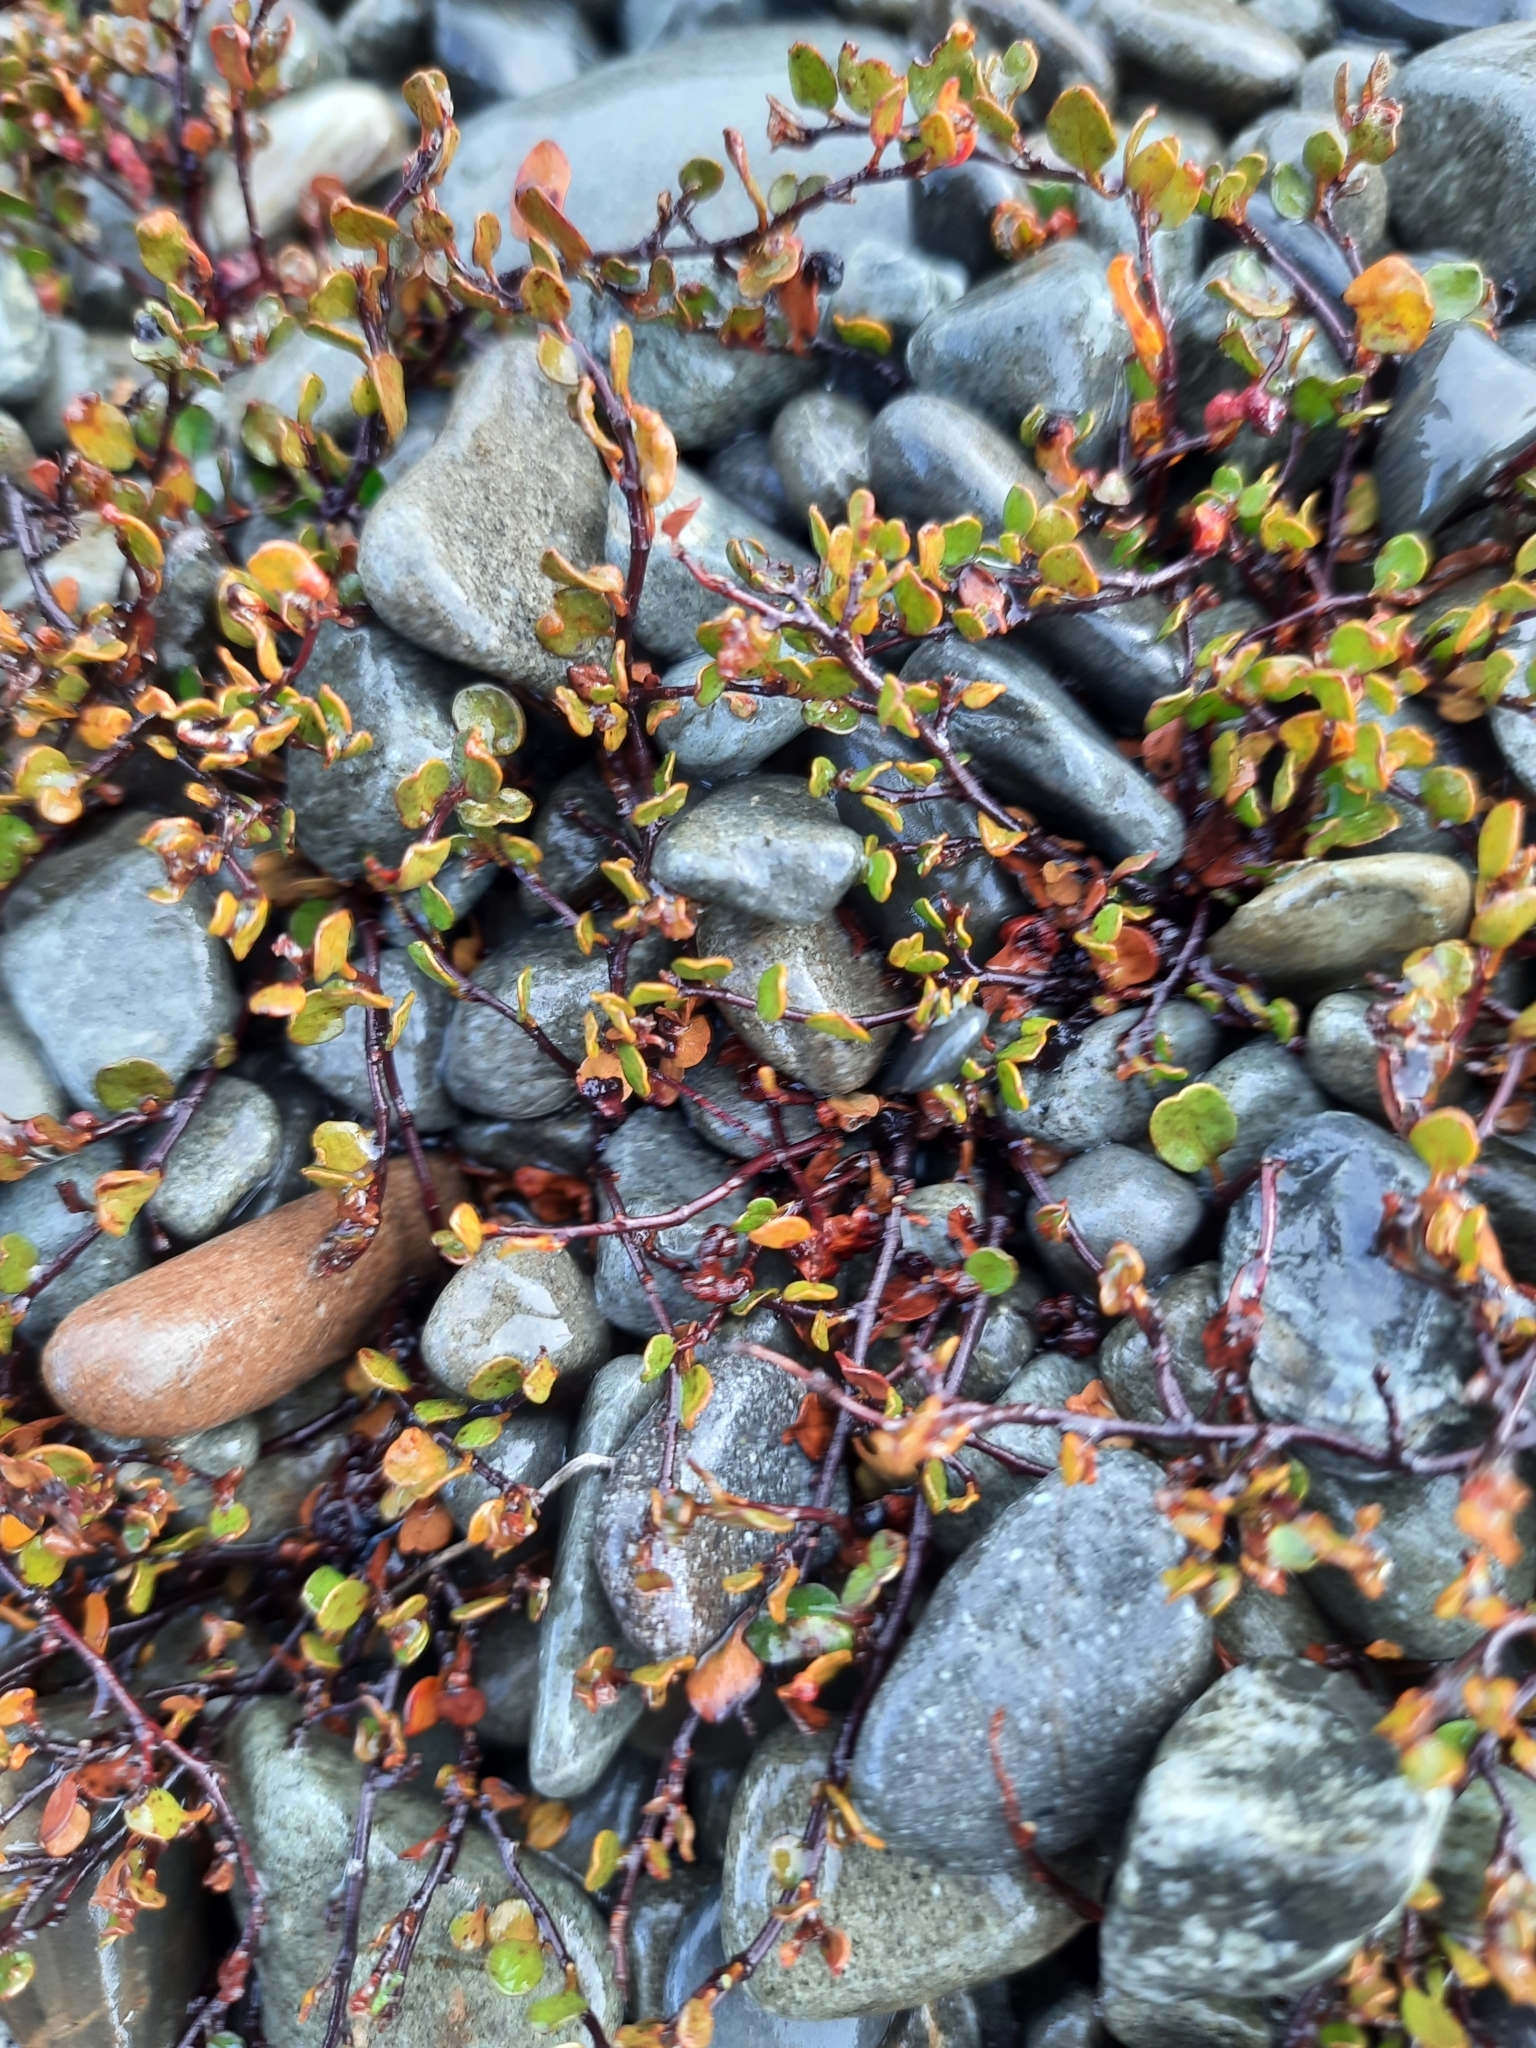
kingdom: Plantae
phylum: Tracheophyta
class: Magnoliopsida
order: Caryophyllales
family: Polygonaceae
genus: Muehlenbeckia
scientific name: Muehlenbeckia axillaris
